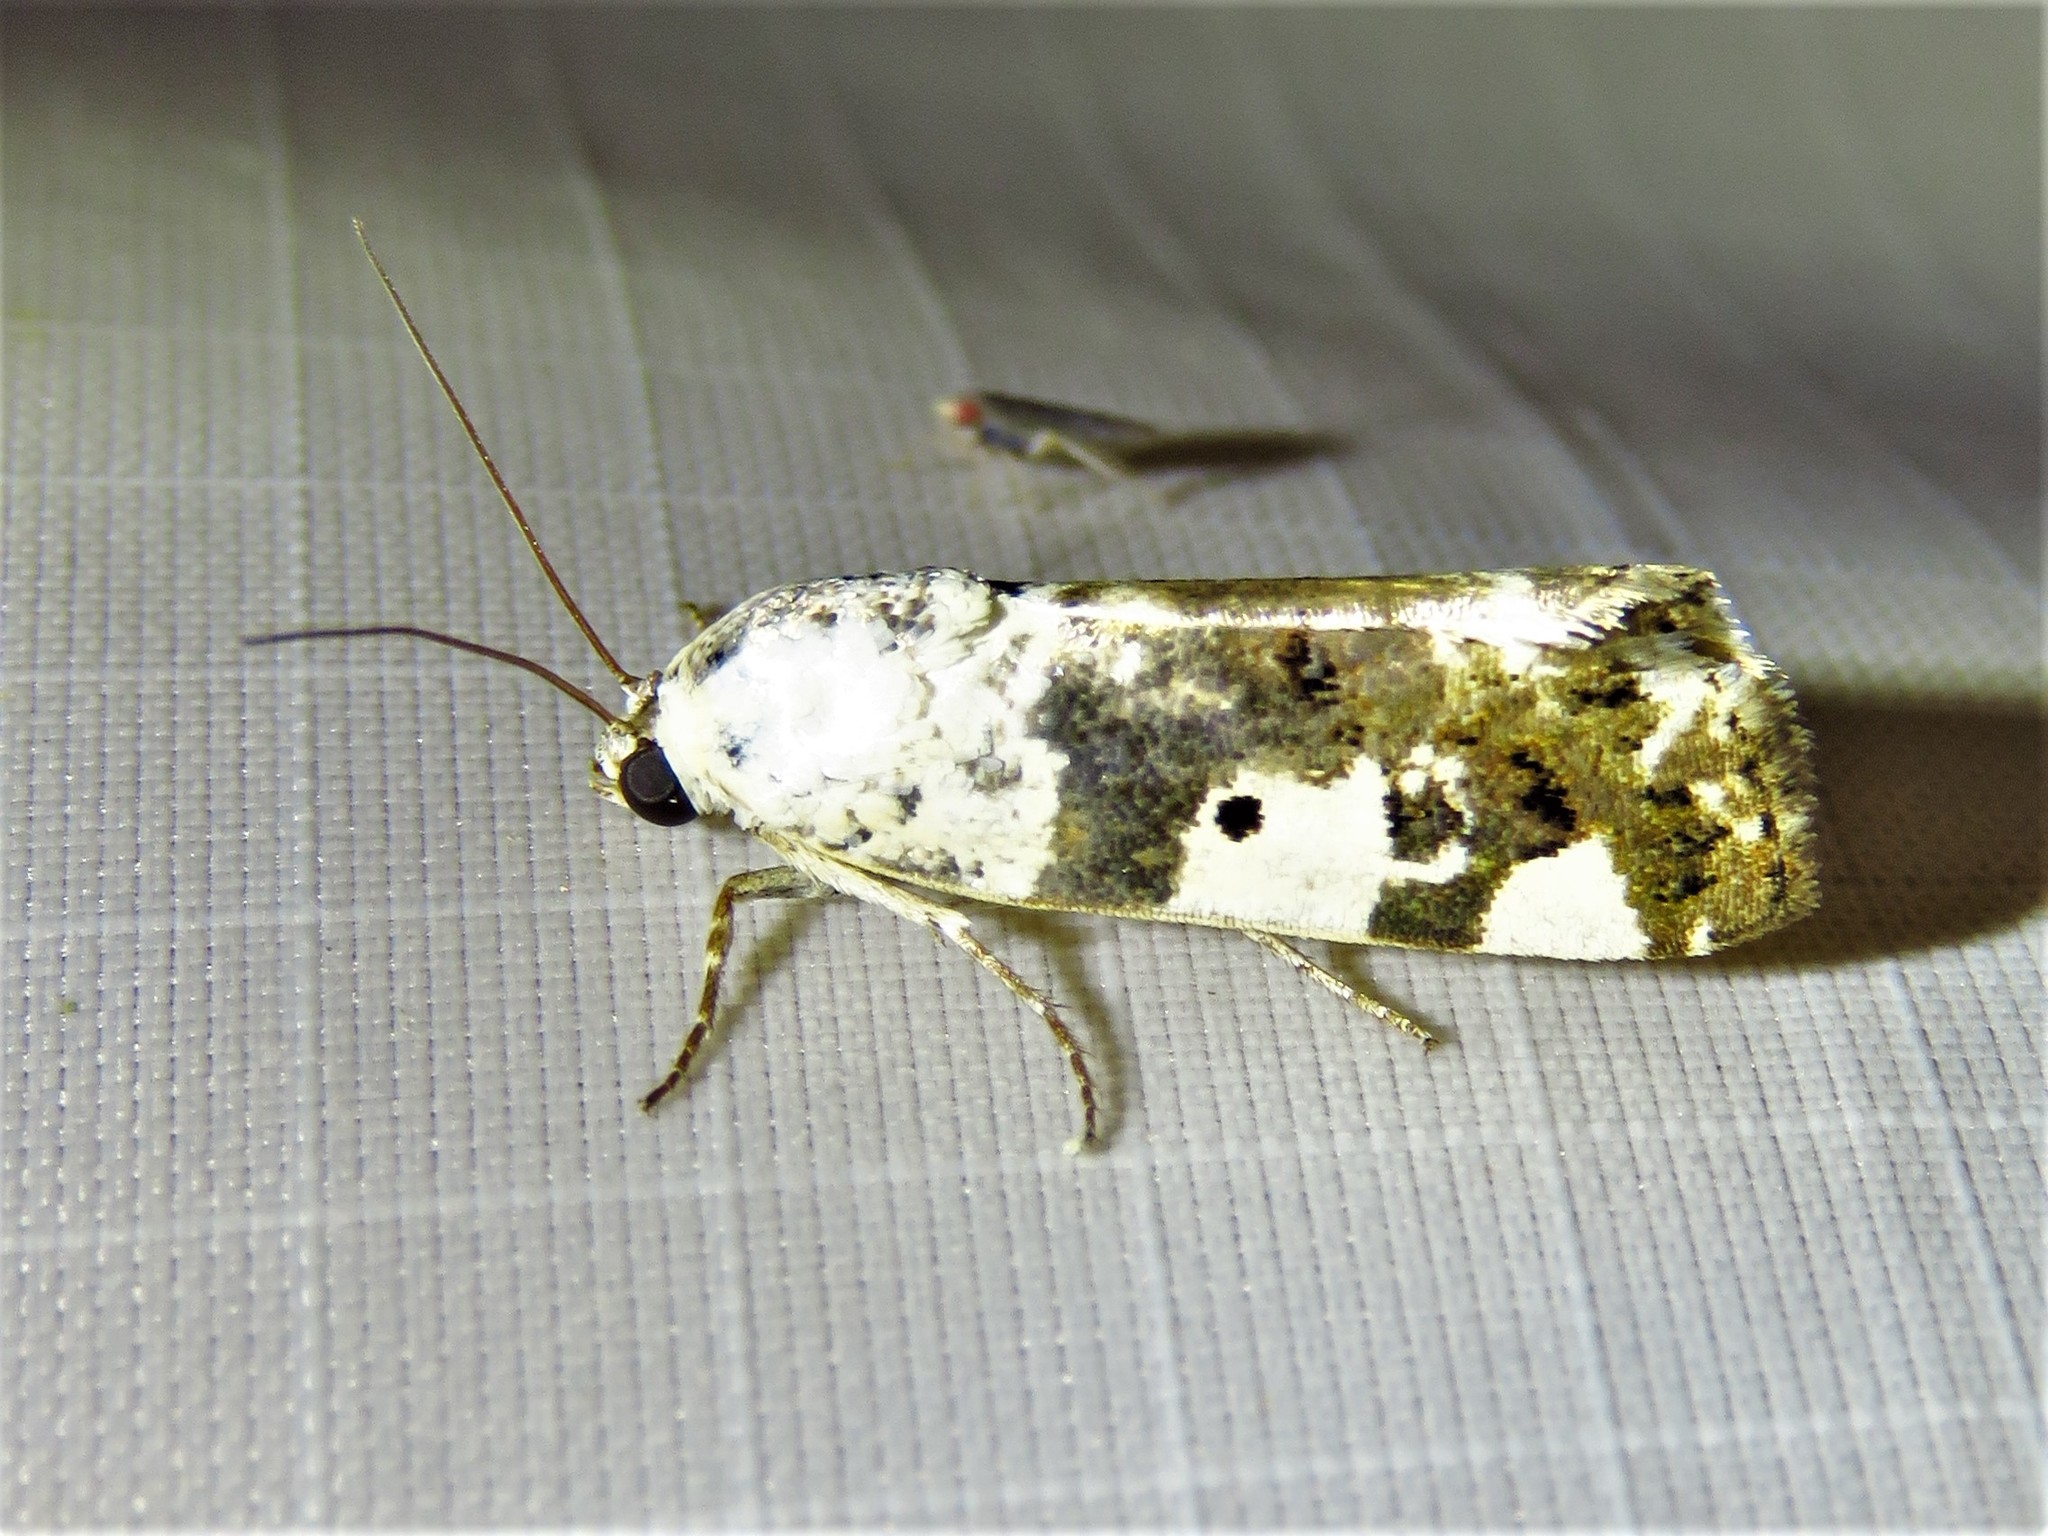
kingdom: Animalia
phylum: Arthropoda
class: Insecta
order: Lepidoptera
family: Noctuidae
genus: Acontia
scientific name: Acontia aprica
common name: Nun
